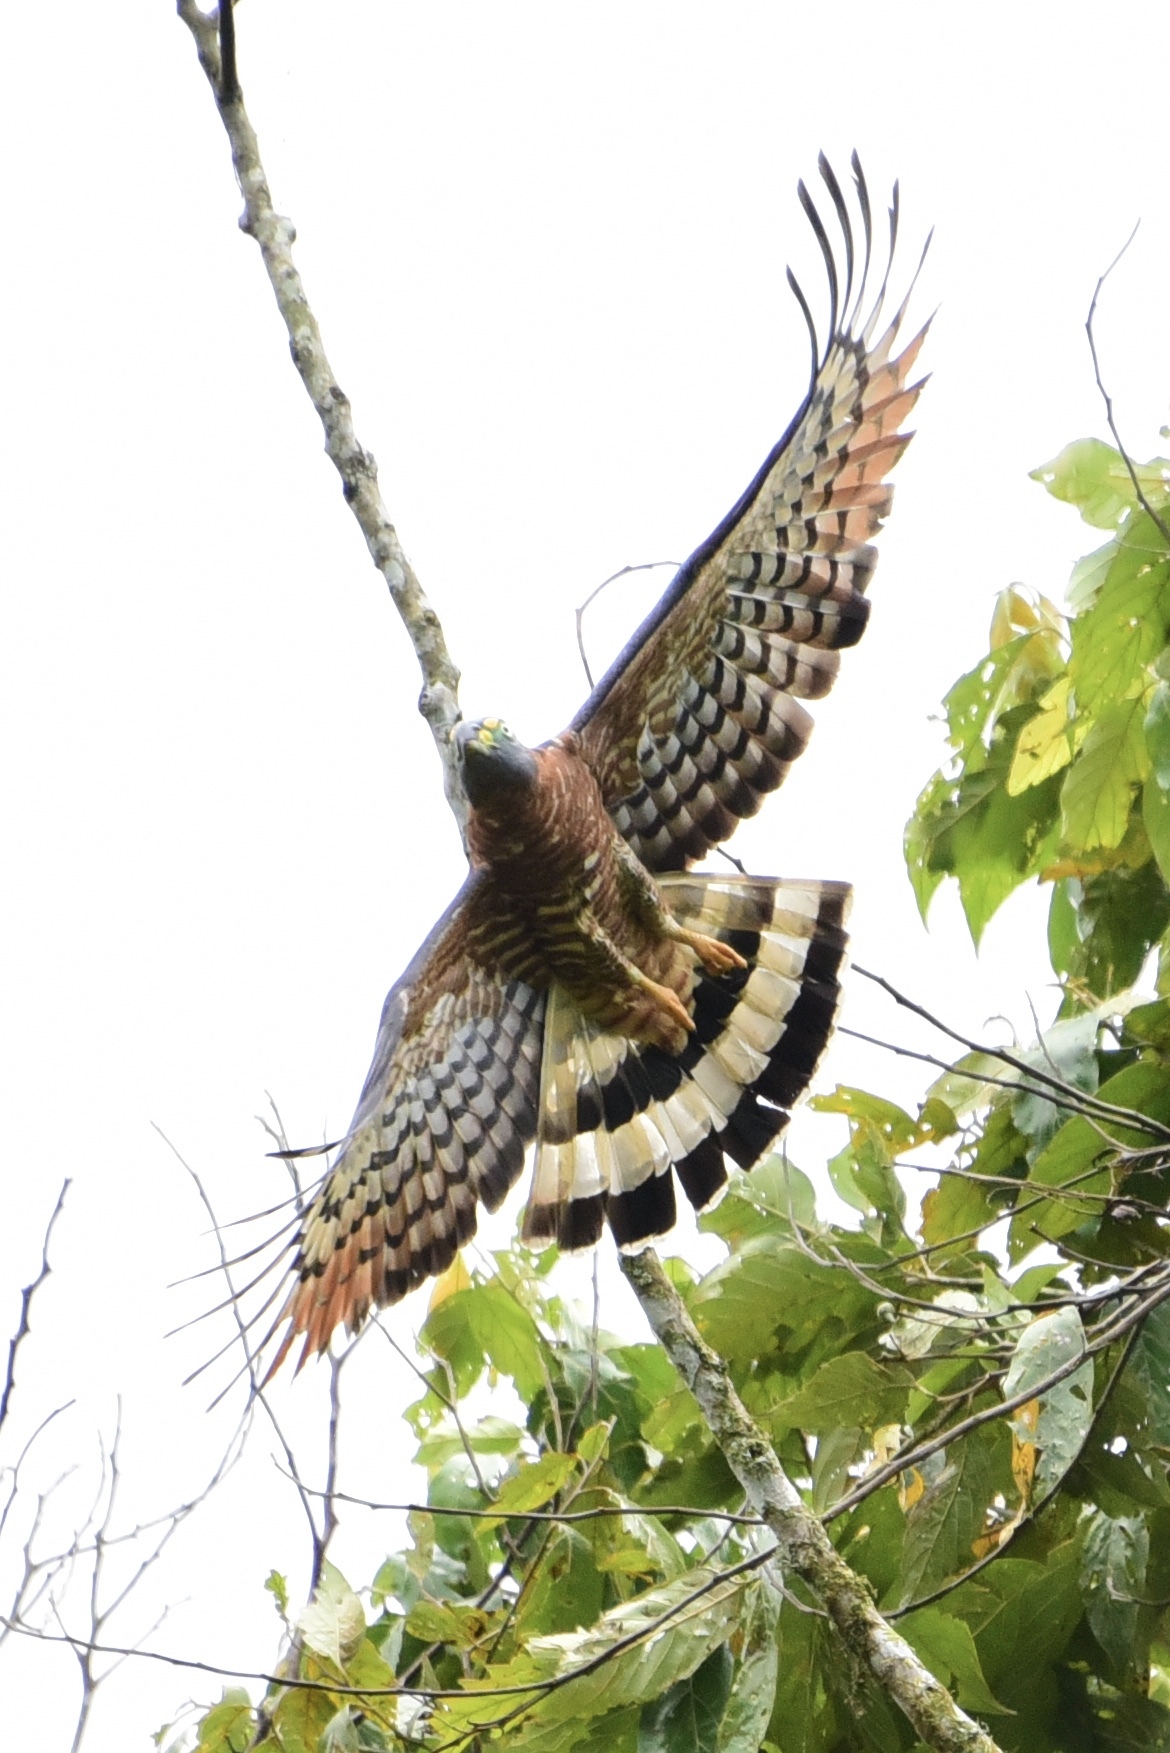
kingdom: Animalia
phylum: Chordata
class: Aves
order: Accipitriformes
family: Accipitridae
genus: Chondrohierax
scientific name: Chondrohierax uncinatus
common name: Hook-billed kite
